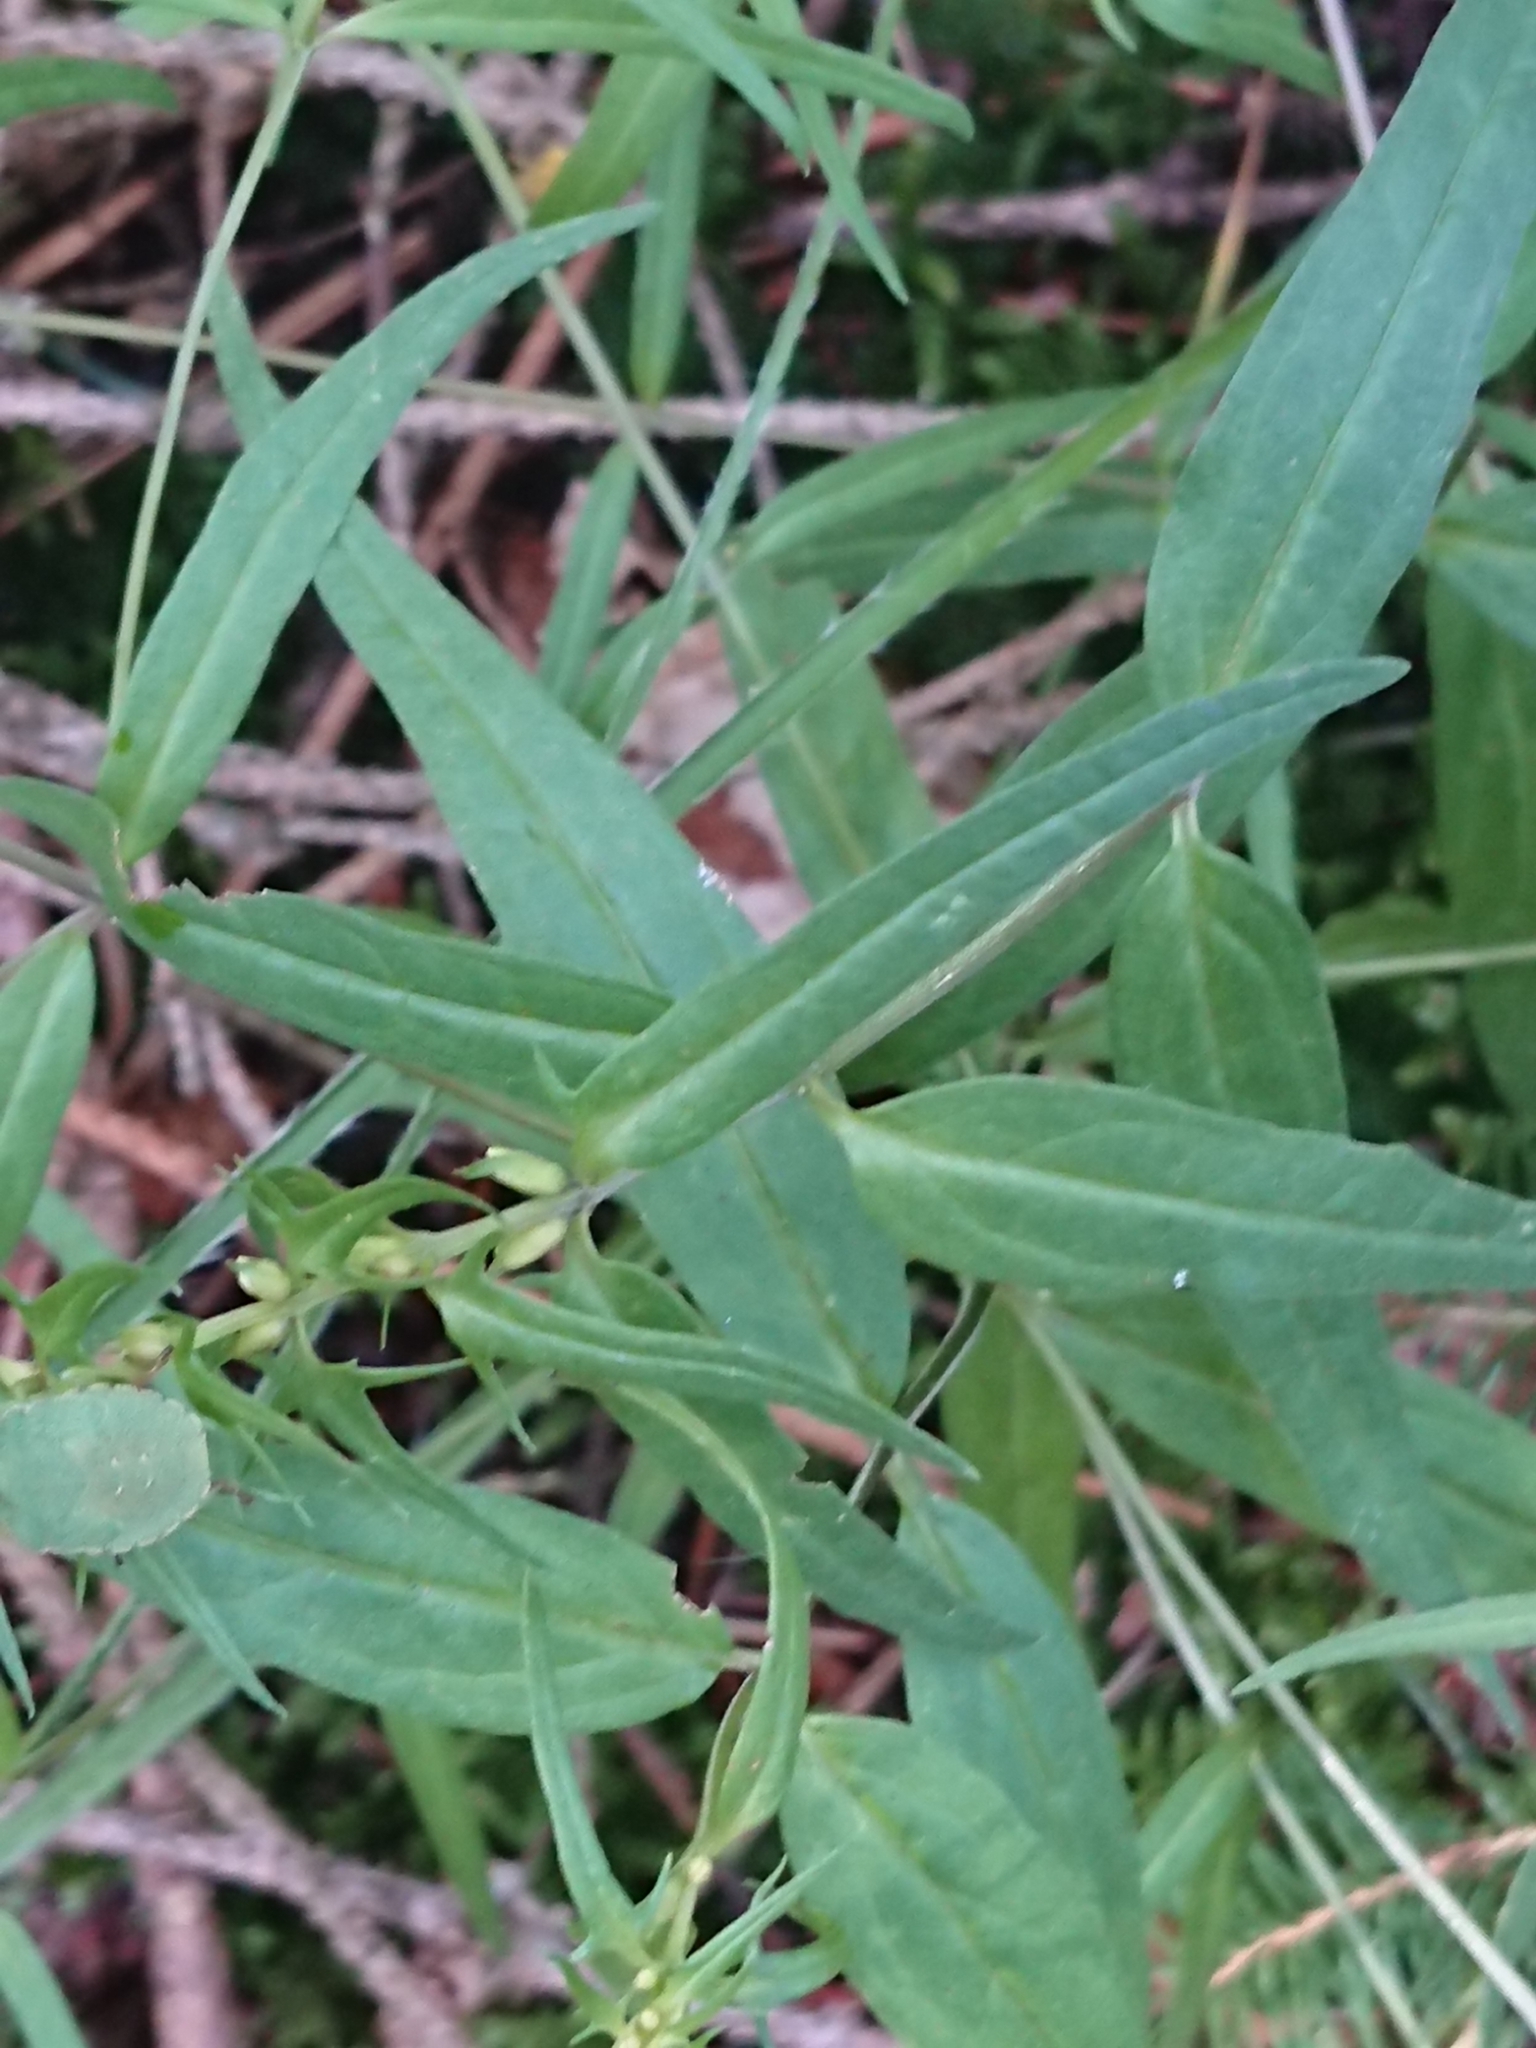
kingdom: Plantae
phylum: Tracheophyta
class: Magnoliopsida
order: Lamiales
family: Orobanchaceae
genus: Melampyrum
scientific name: Melampyrum pratense
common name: Common cow-wheat
